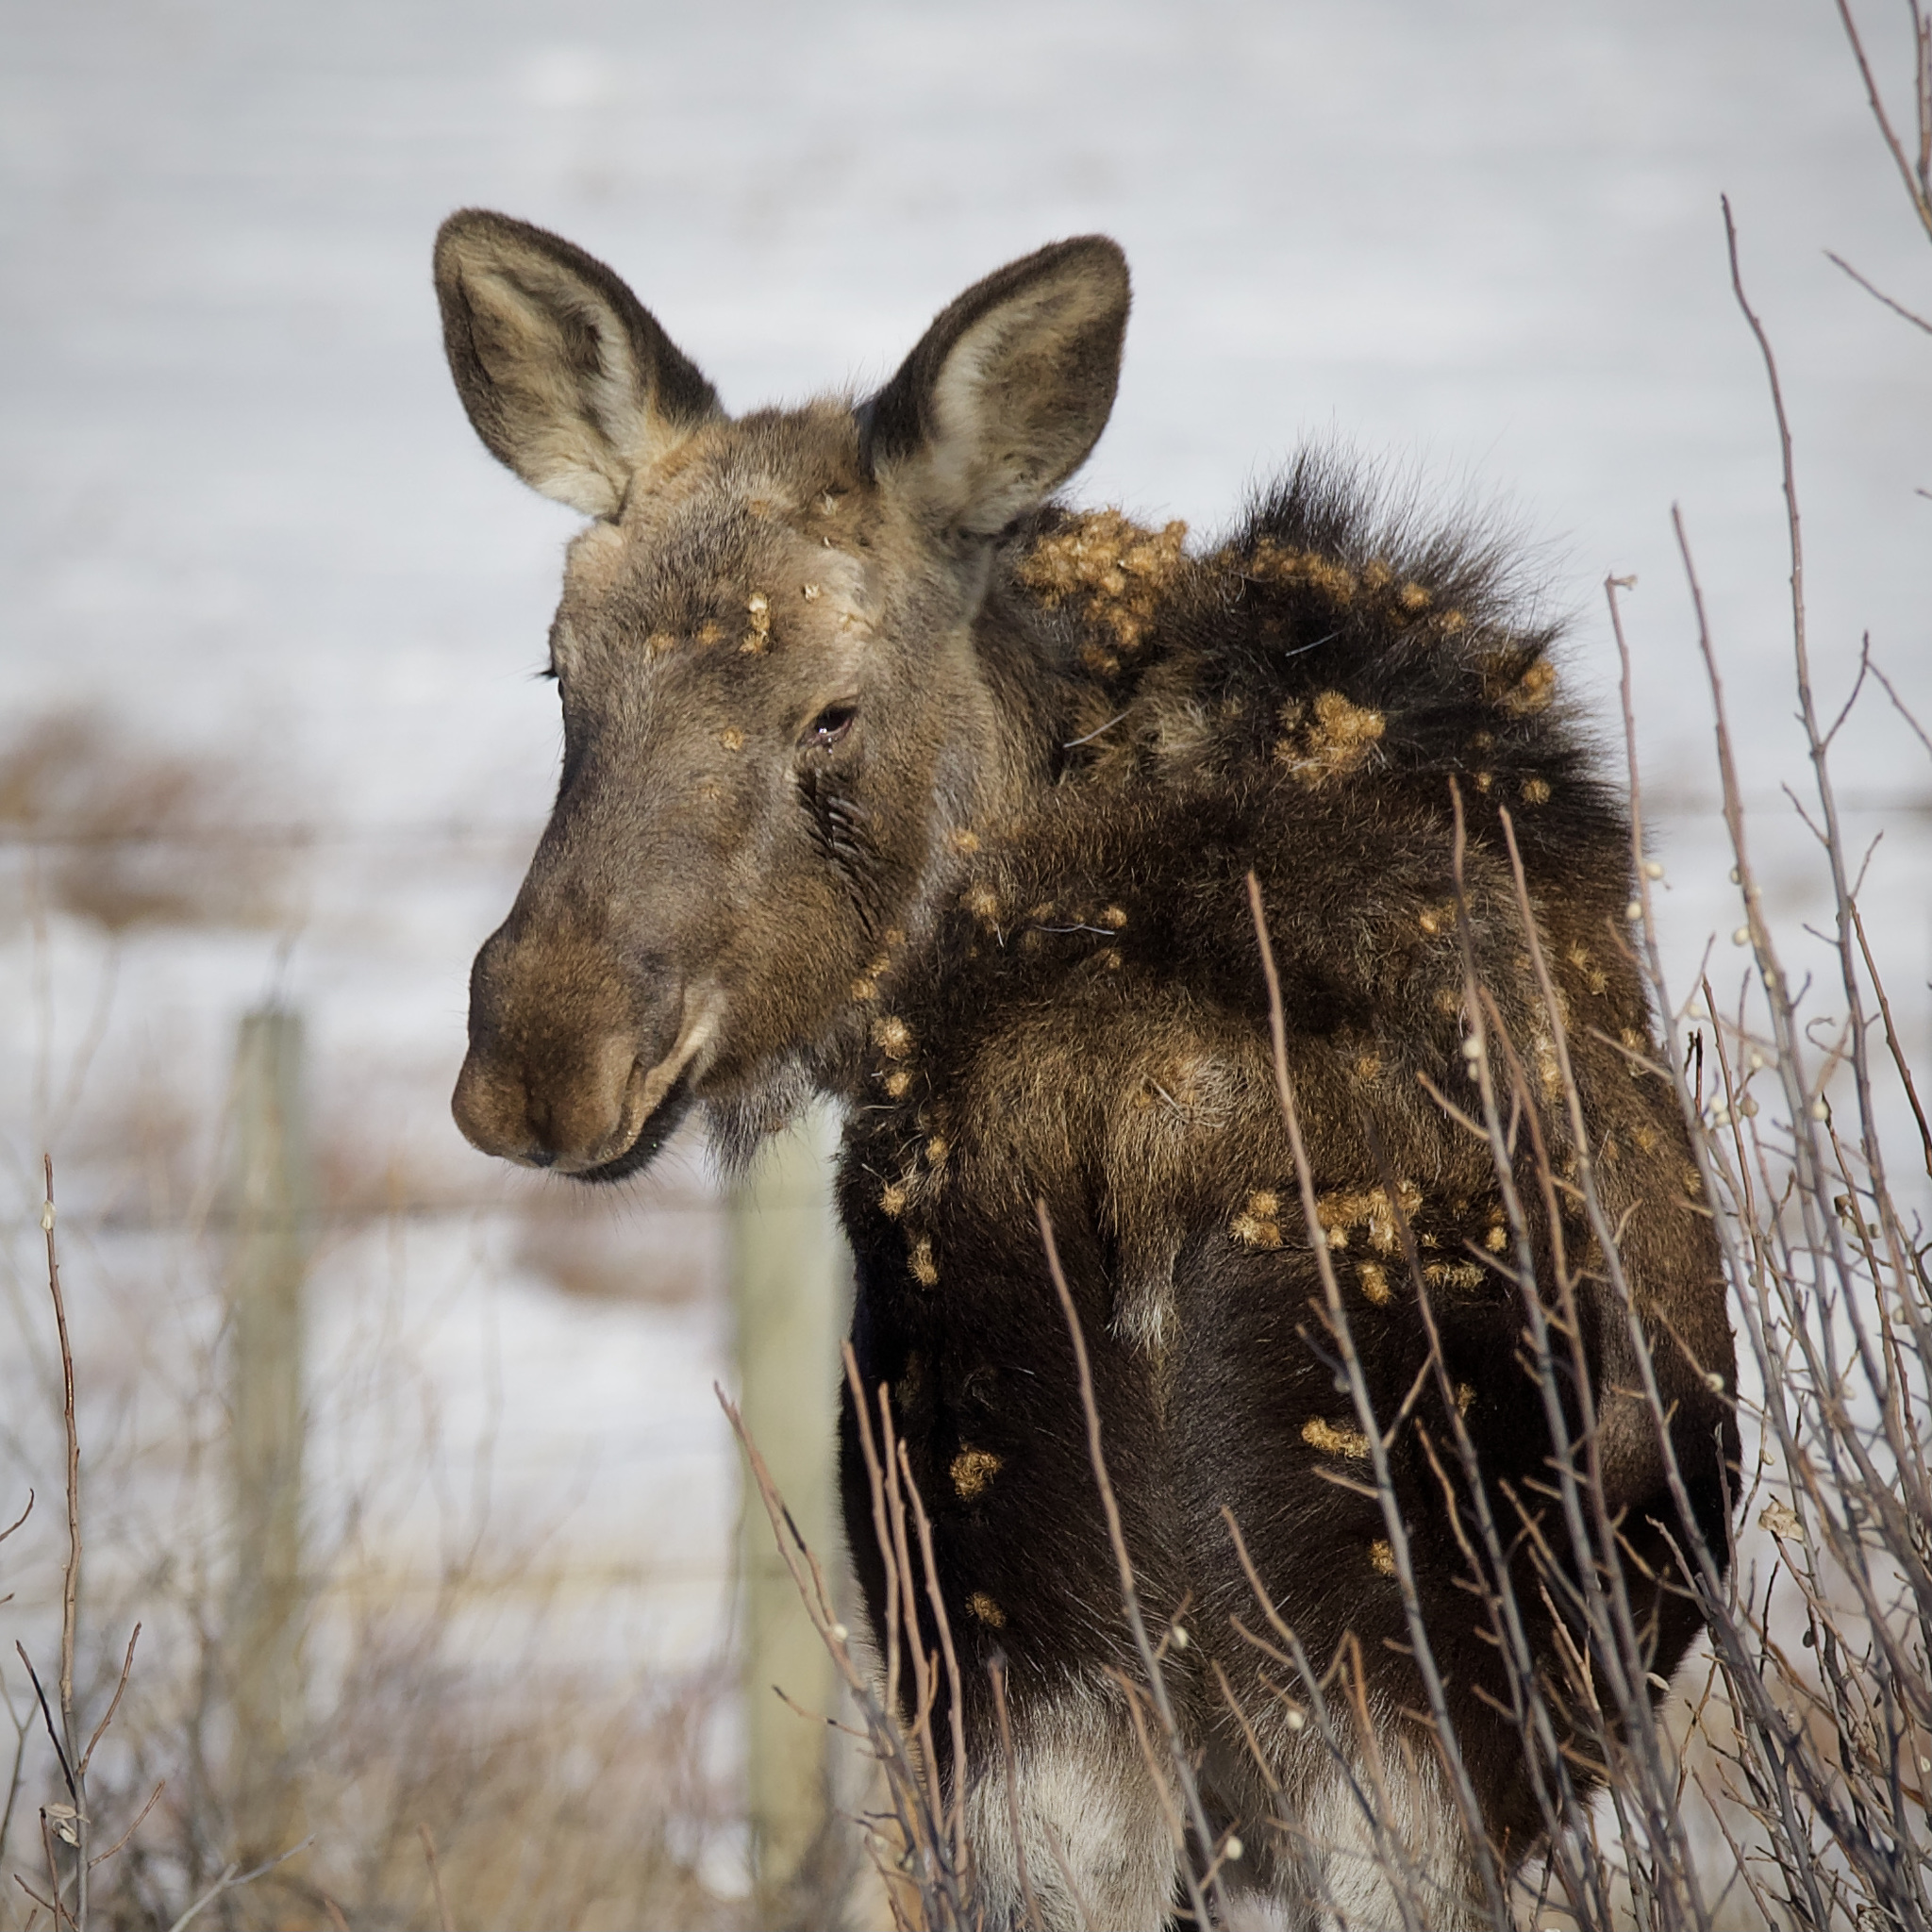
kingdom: Animalia
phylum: Chordata
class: Mammalia
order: Artiodactyla
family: Cervidae
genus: Alces
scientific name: Alces alces
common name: Moose
